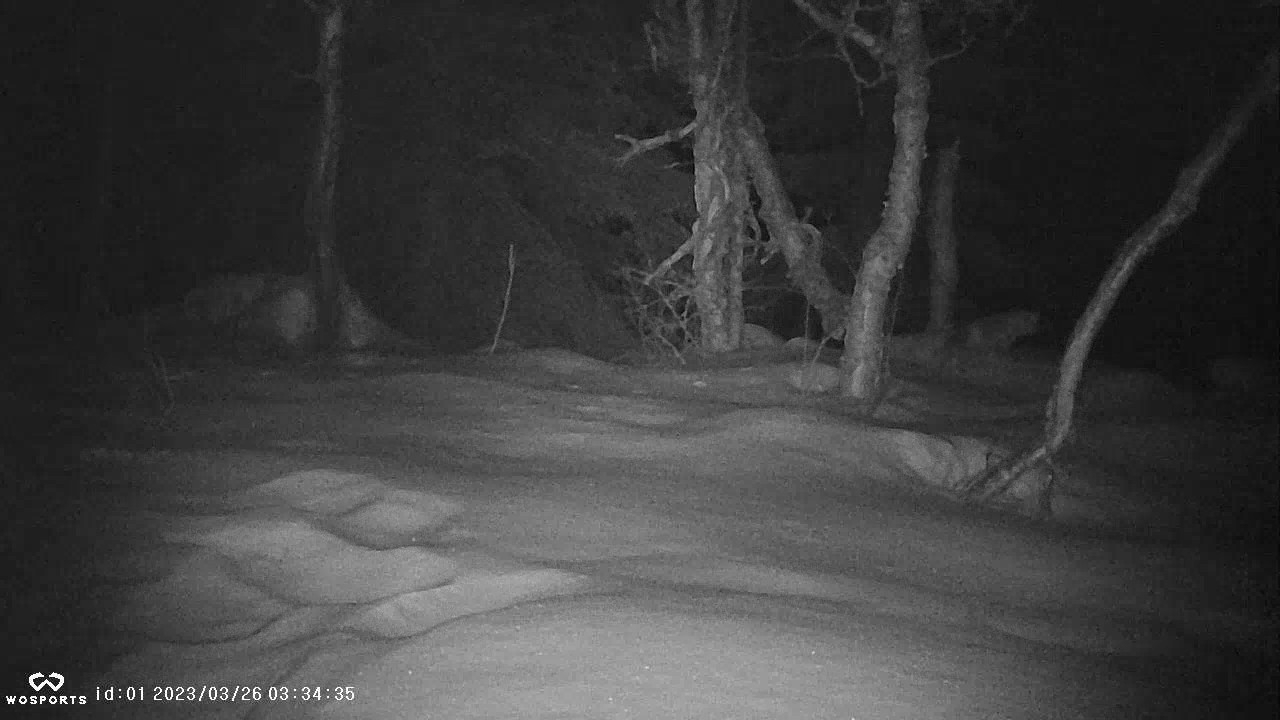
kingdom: Animalia
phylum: Chordata
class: Mammalia
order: Carnivora
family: Canidae
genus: Vulpes
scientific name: Vulpes vulpes
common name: Red fox
